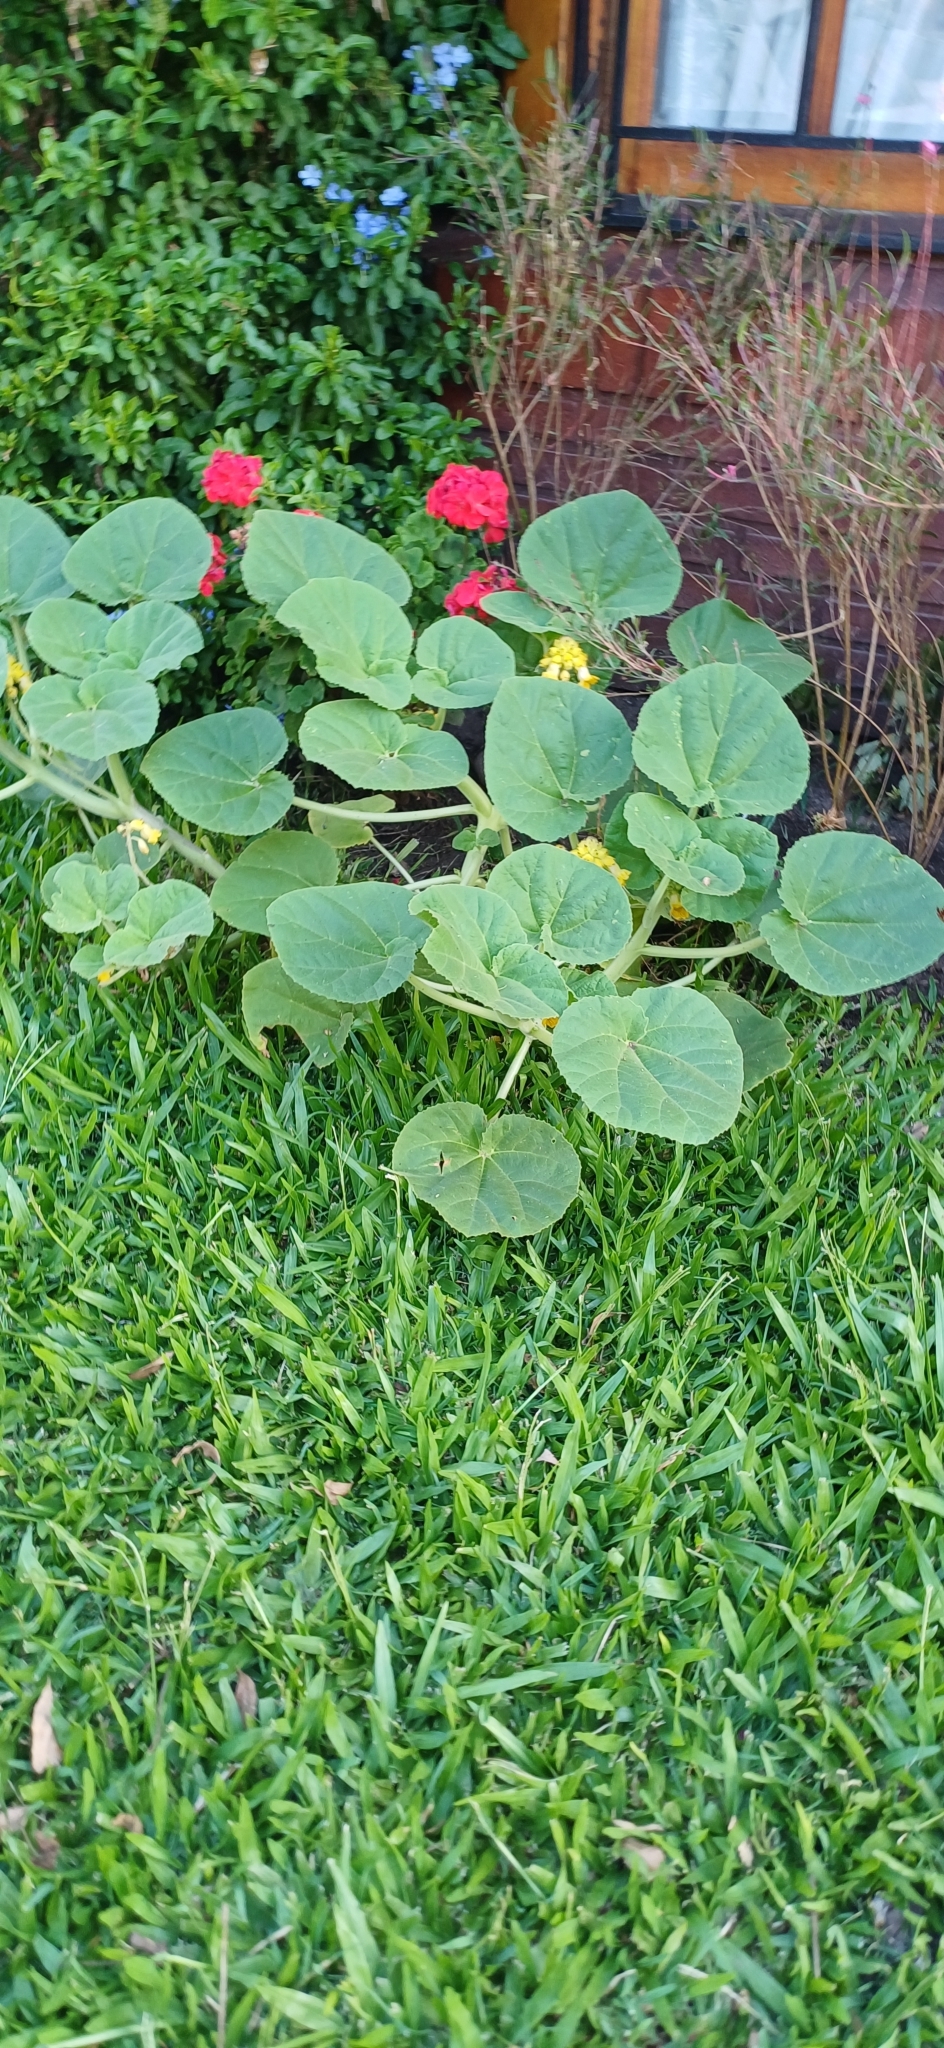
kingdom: Plantae
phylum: Tracheophyta
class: Magnoliopsida
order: Lamiales
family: Martyniaceae
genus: Ibicella
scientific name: Ibicella lutea
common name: Yellow unicorn-plant
